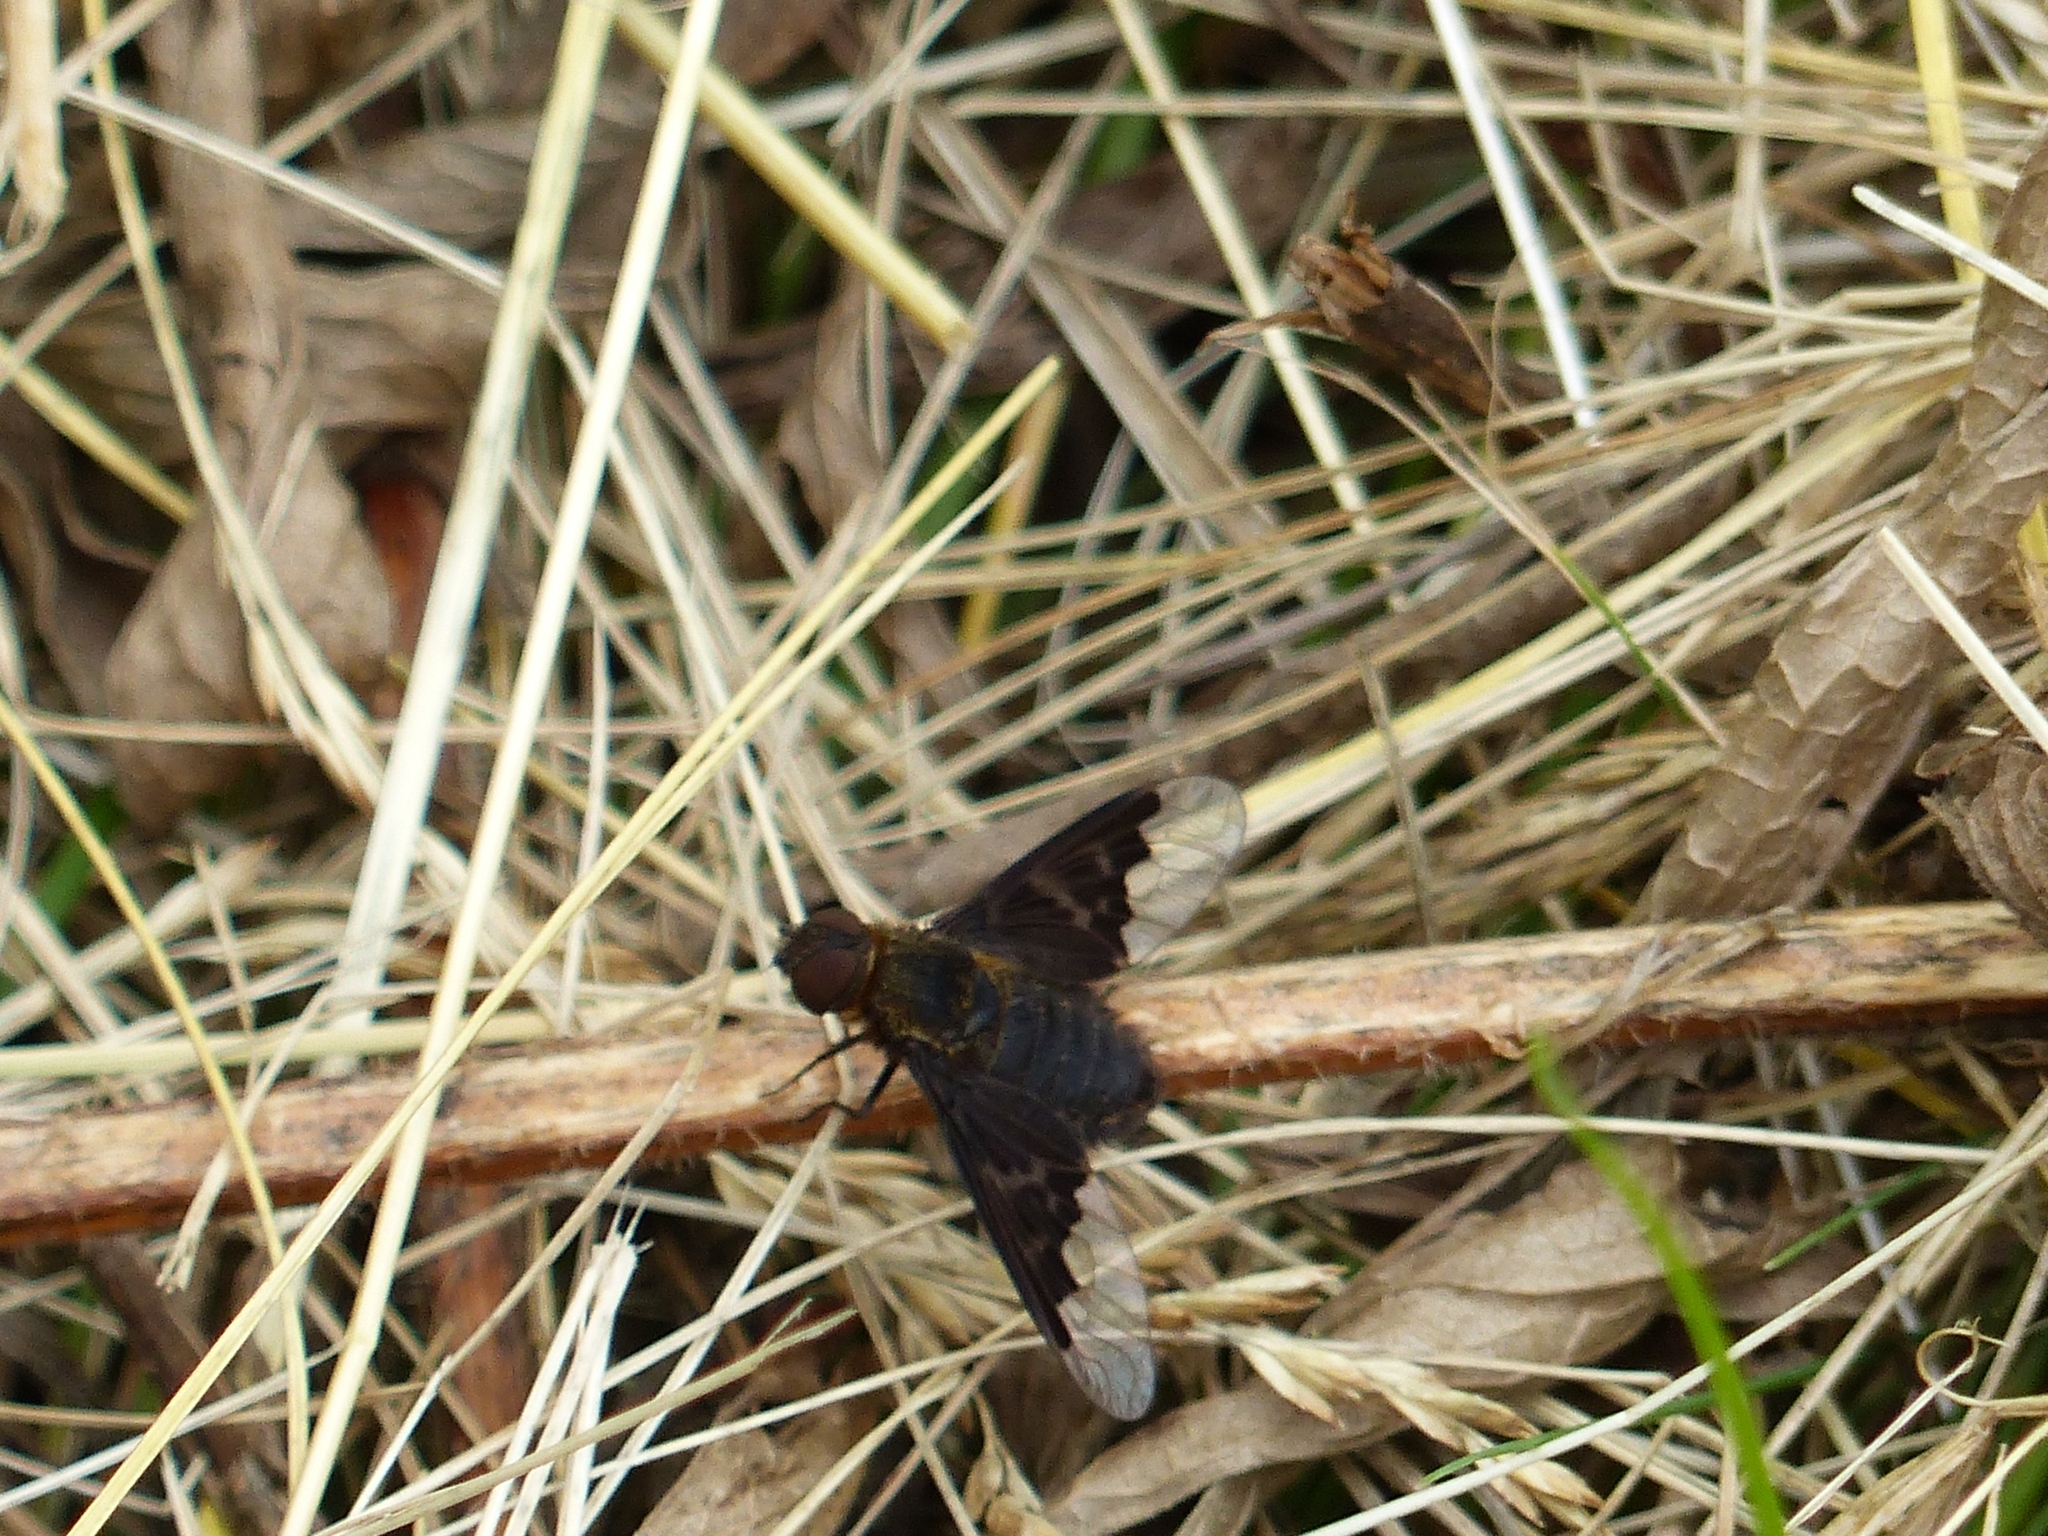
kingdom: Animalia
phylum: Arthropoda
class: Insecta
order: Diptera
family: Bombyliidae
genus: Hemipenthes
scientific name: Hemipenthes morio
